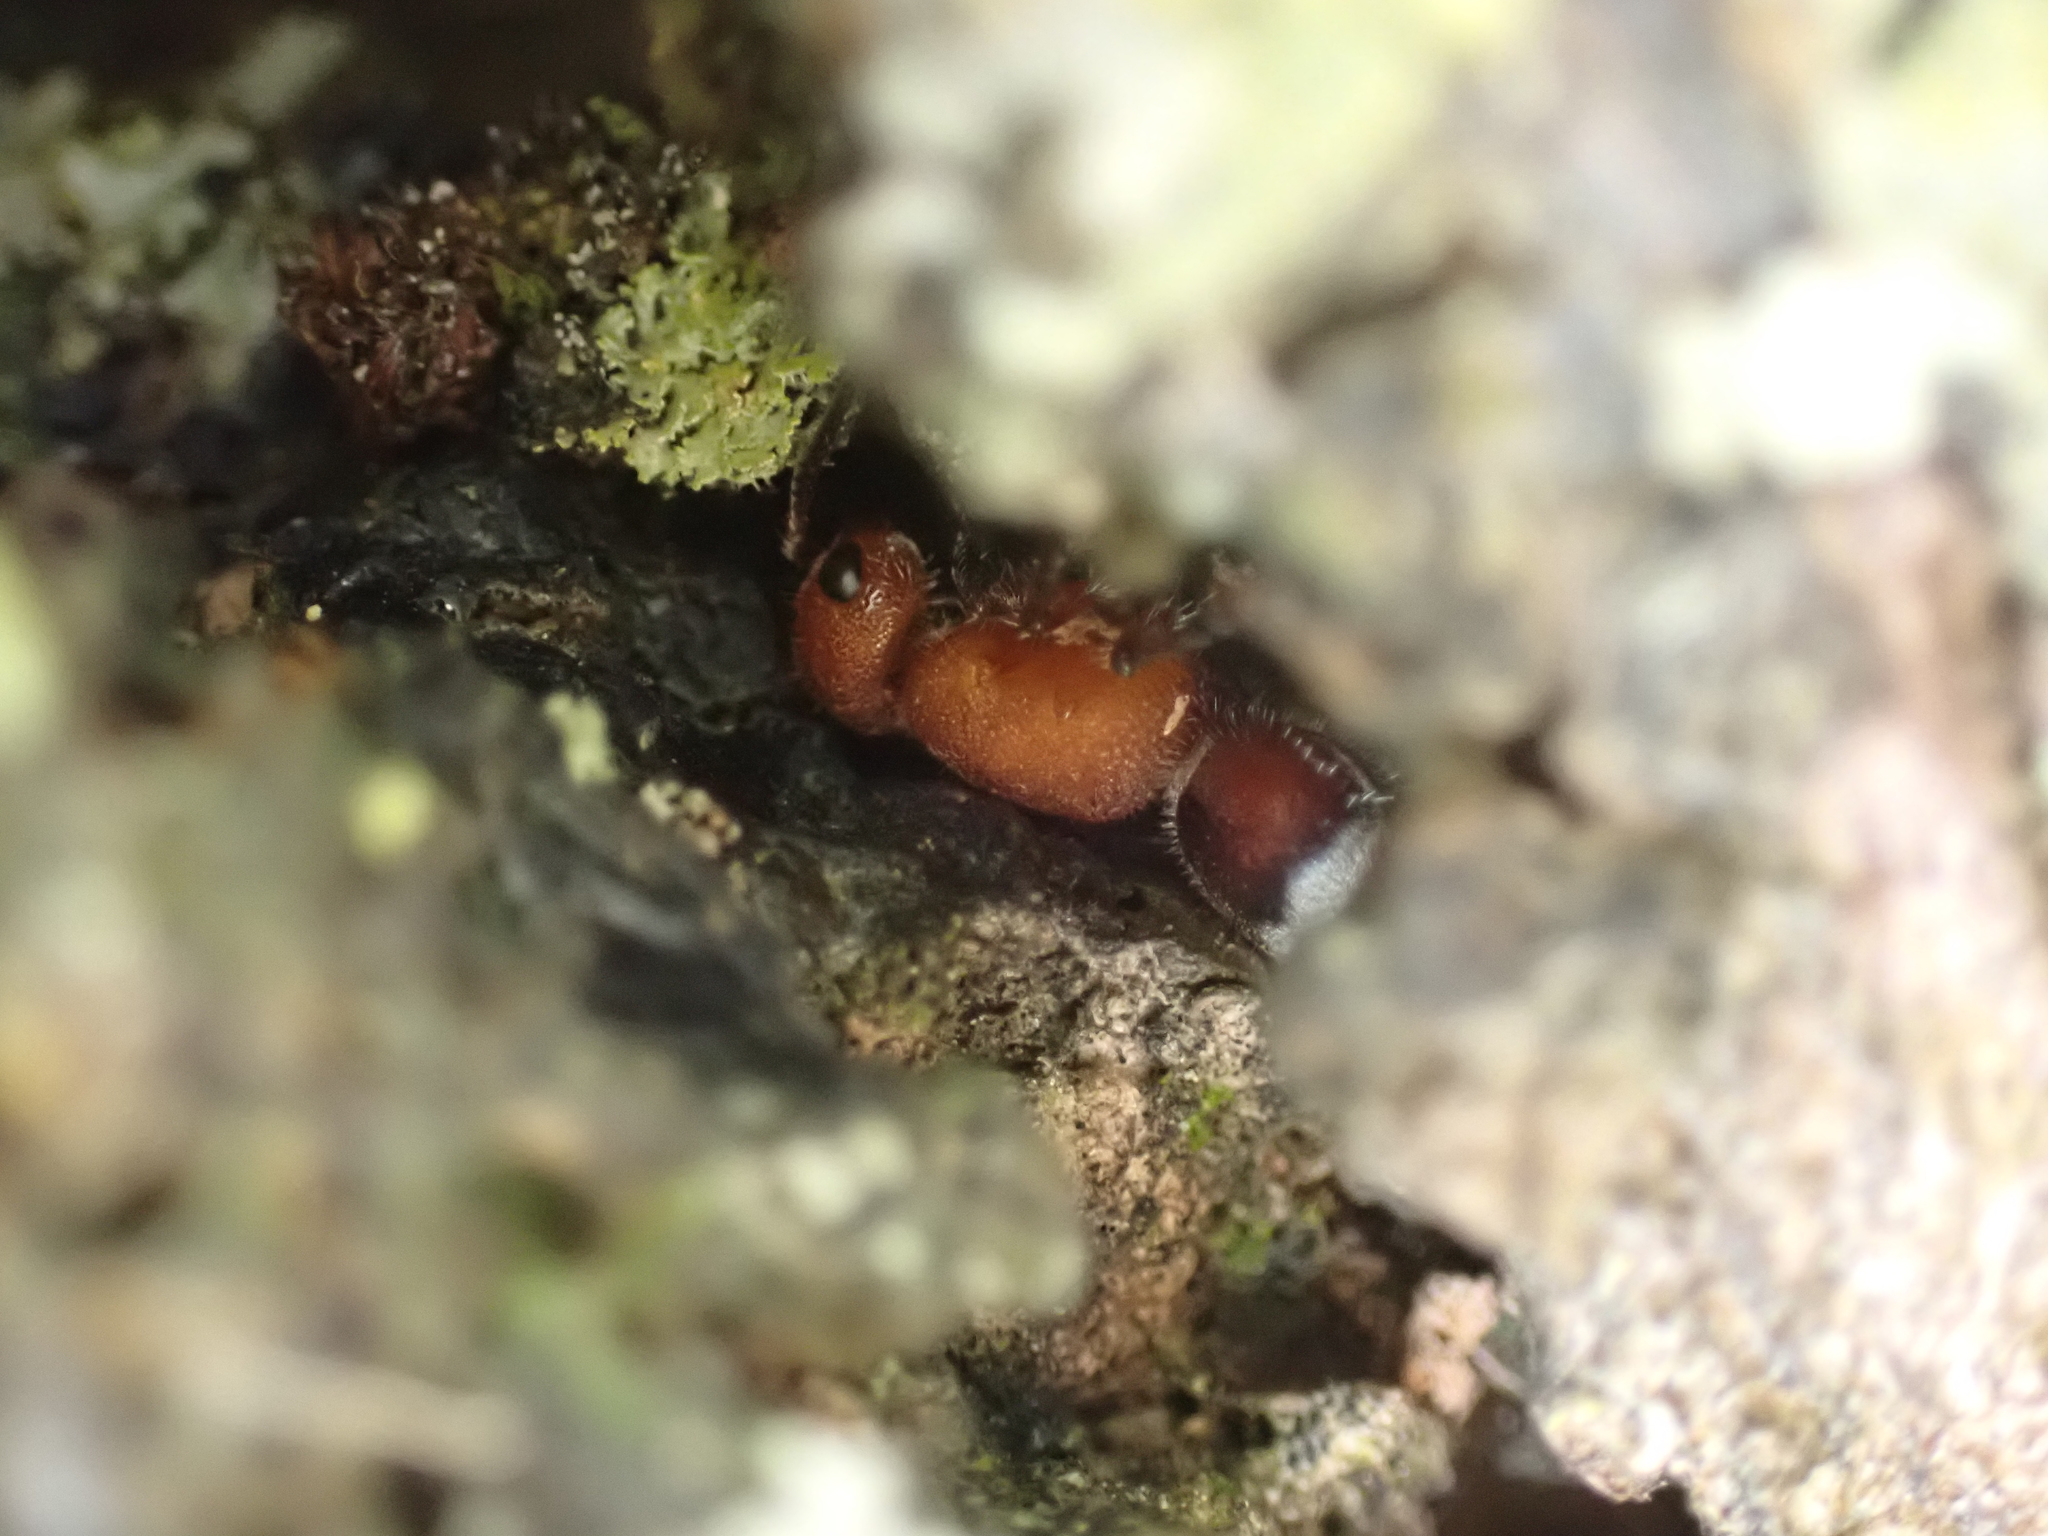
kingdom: Animalia
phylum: Arthropoda
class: Insecta
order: Hymenoptera
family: Mutillidae
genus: Timulla
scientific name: Timulla
